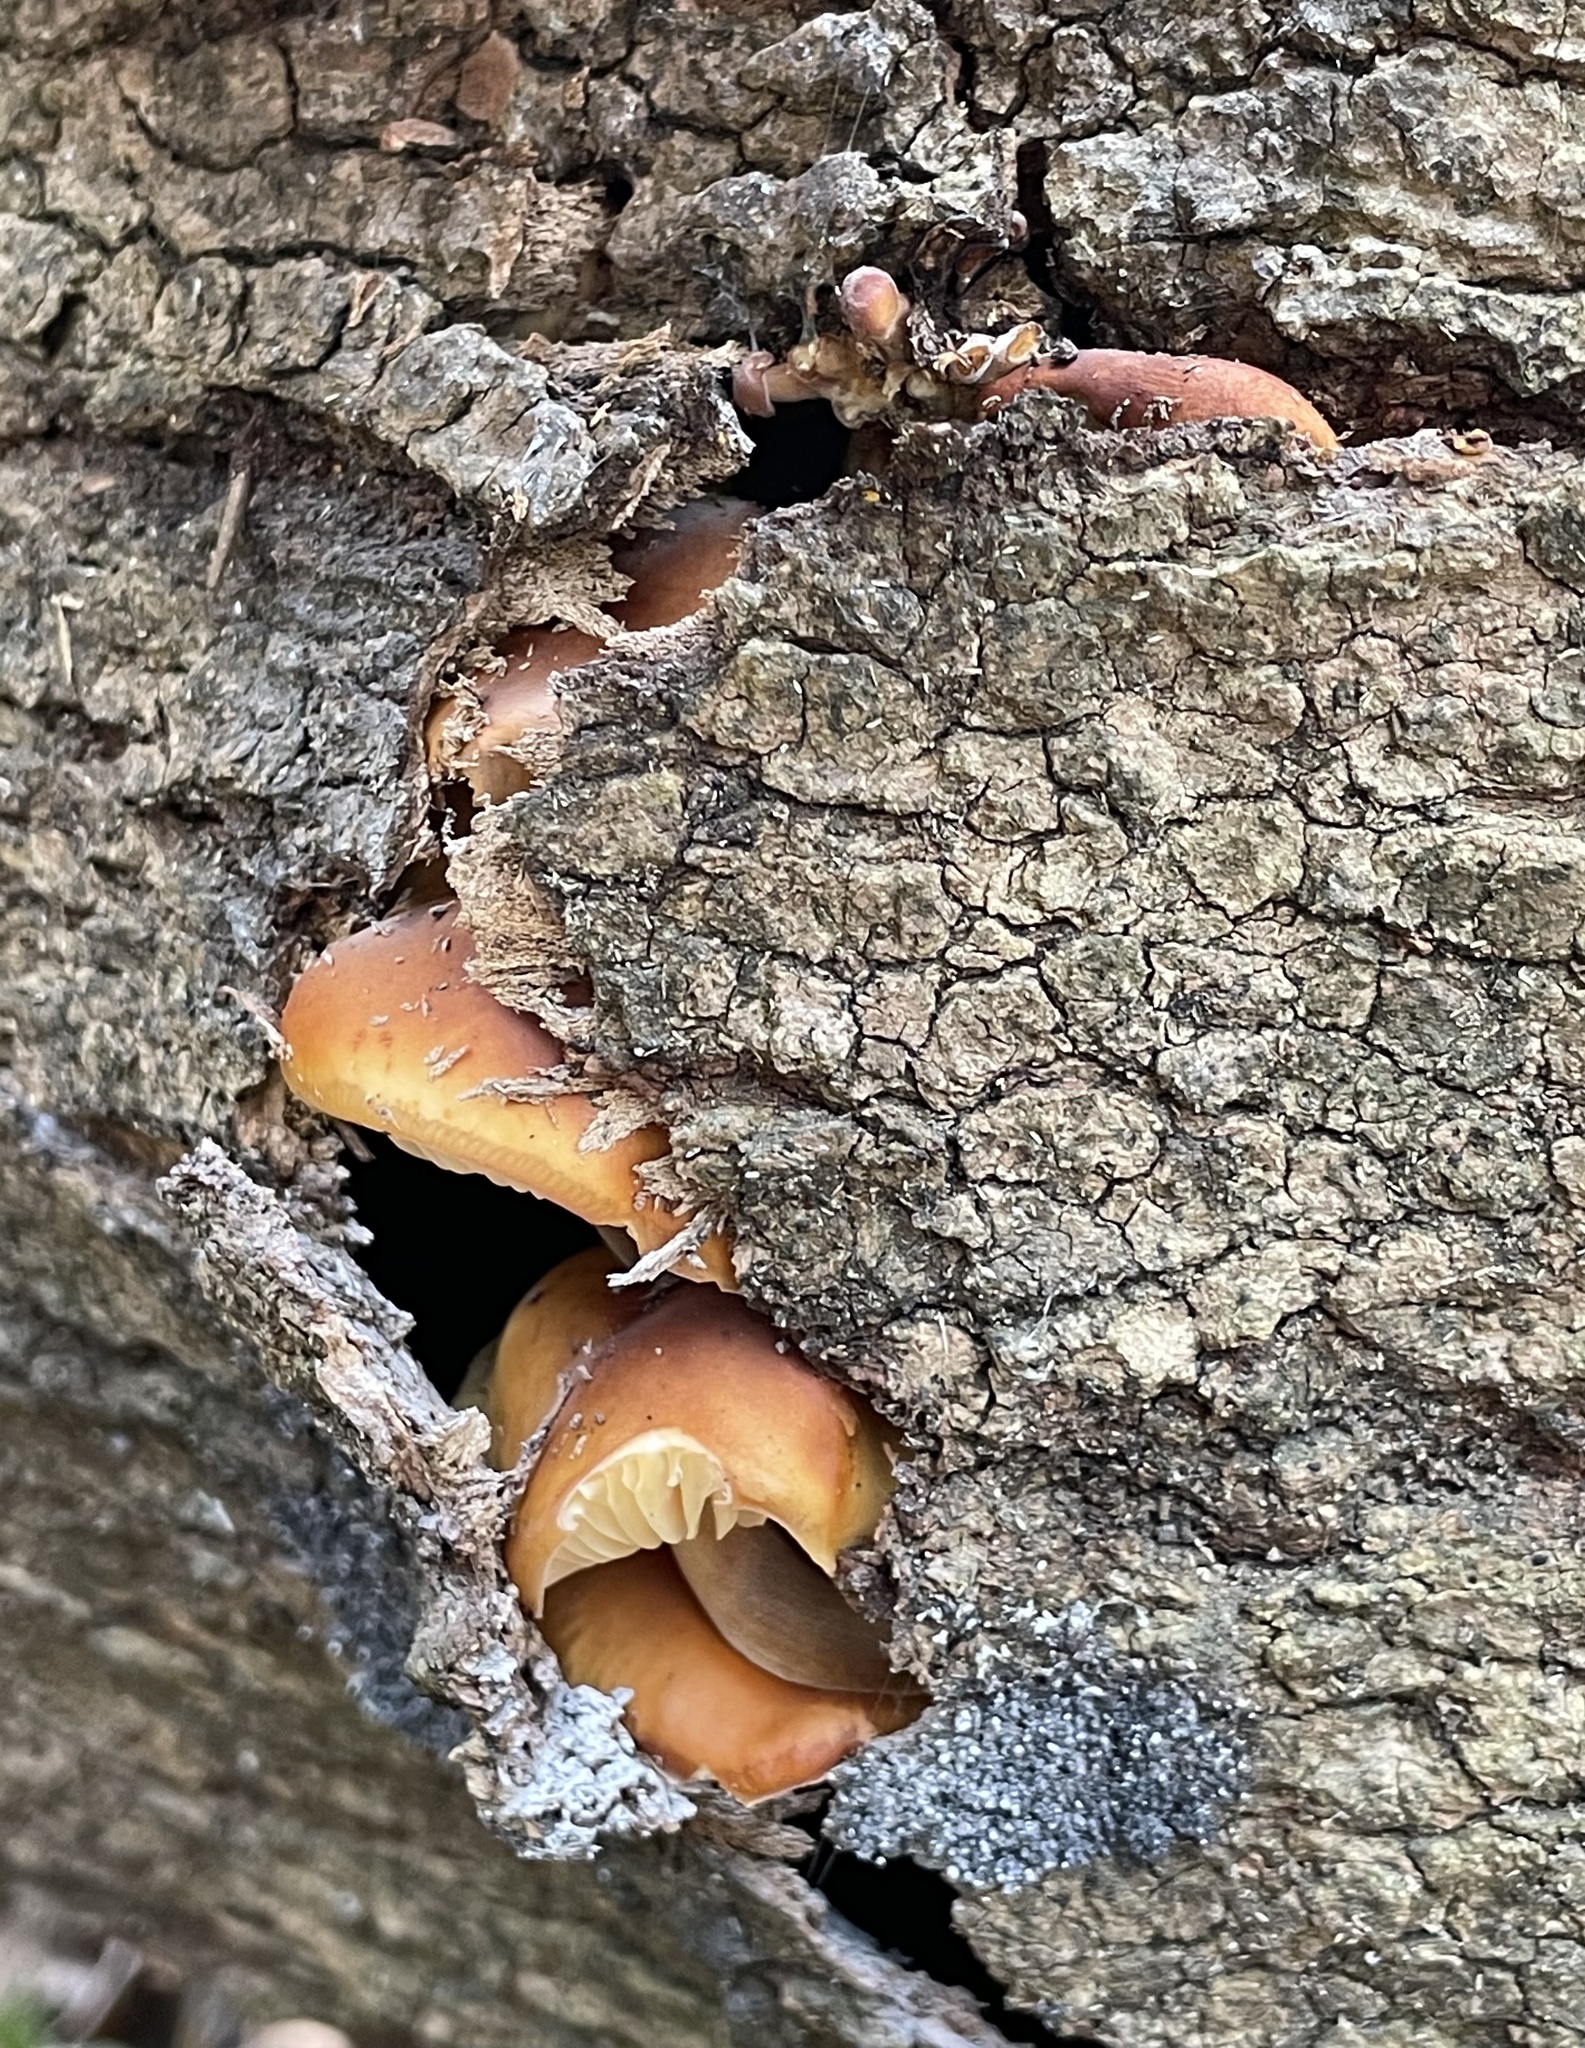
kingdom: Fungi
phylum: Basidiomycota
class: Agaricomycetes
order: Agaricales
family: Physalacriaceae
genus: Flammulina
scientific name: Flammulina velutipes
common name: Velvet shank
